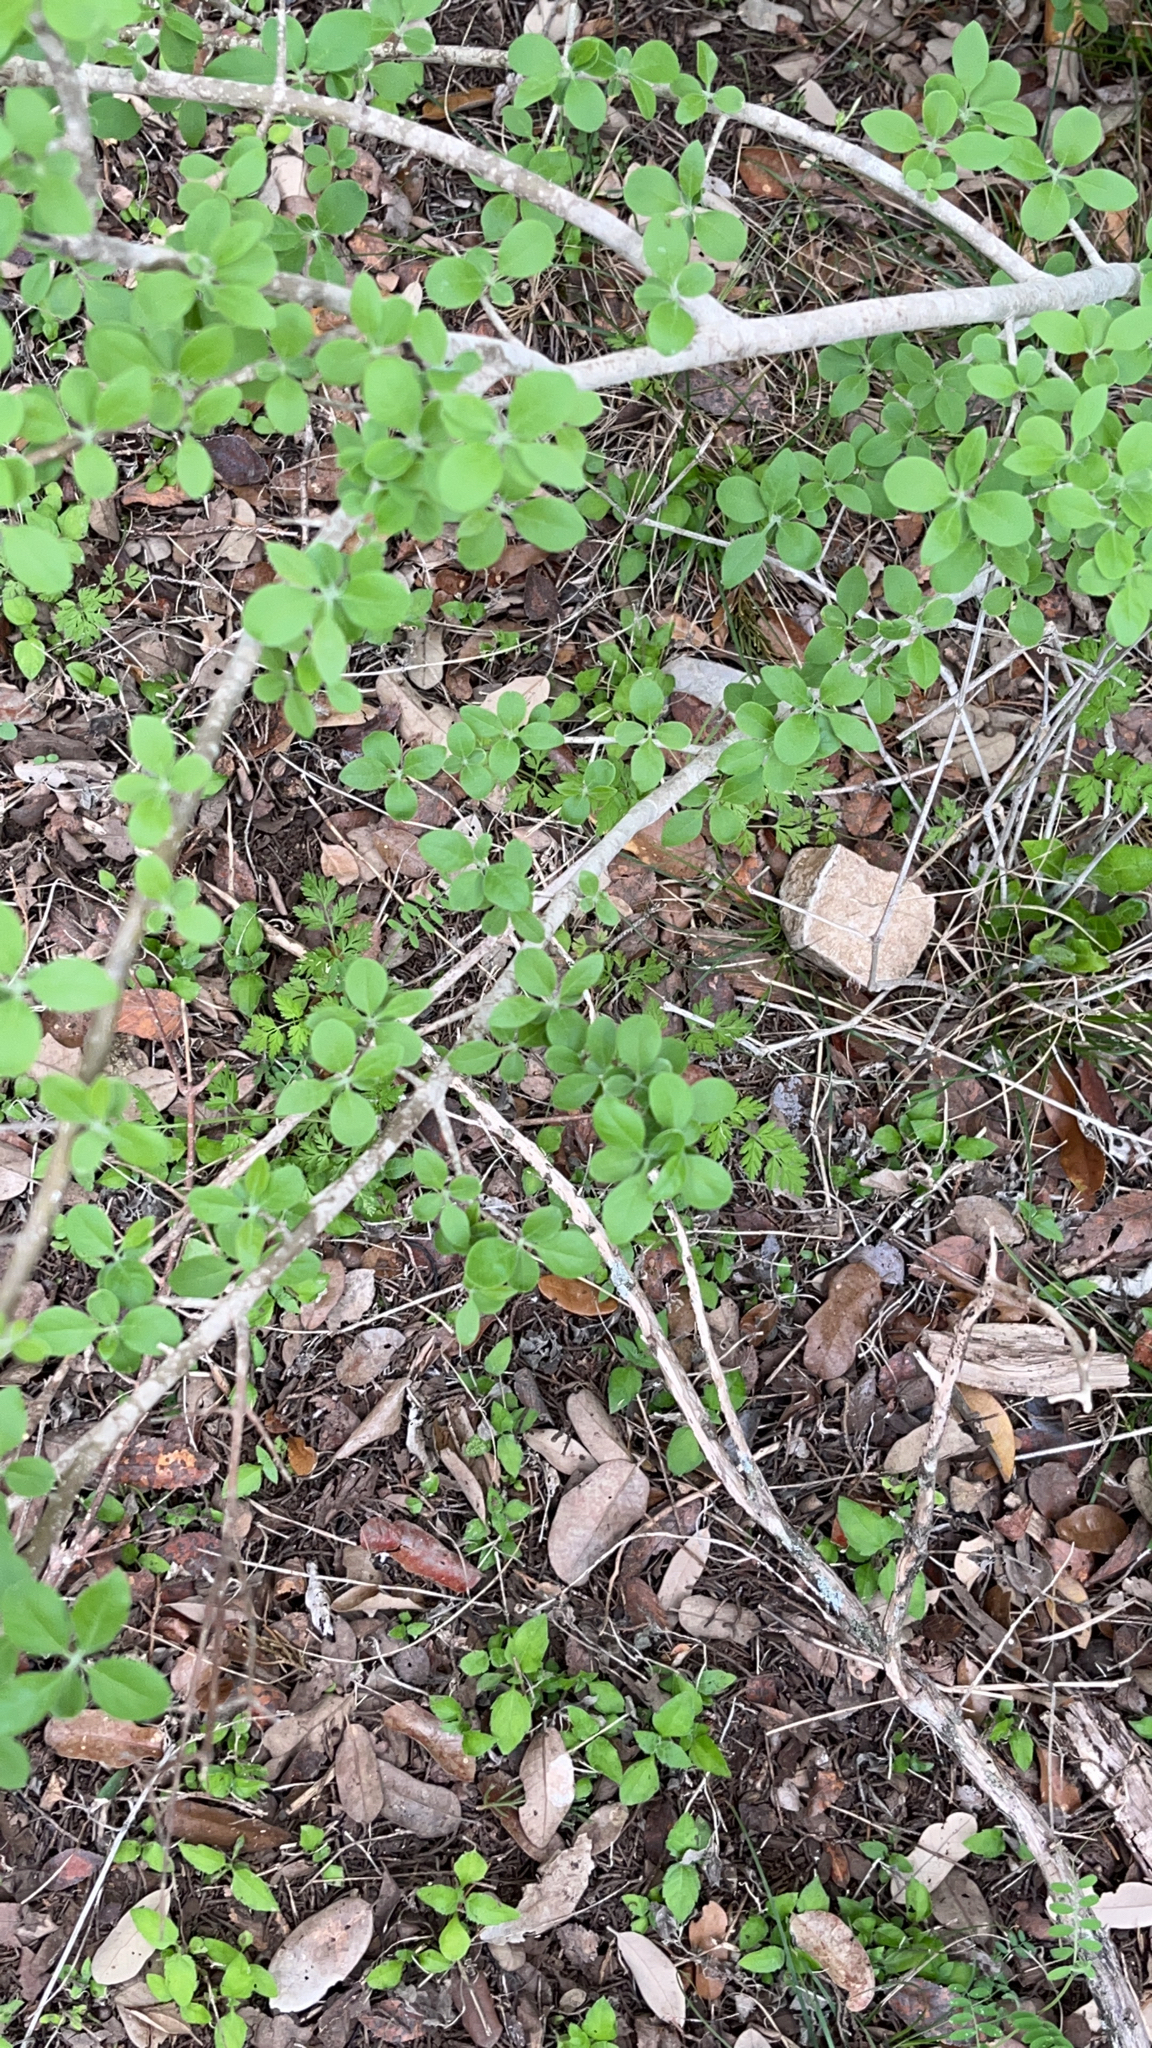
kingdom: Plantae
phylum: Tracheophyta
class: Magnoliopsida
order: Lamiales
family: Oleaceae
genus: Forestiera
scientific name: Forestiera pubescens
